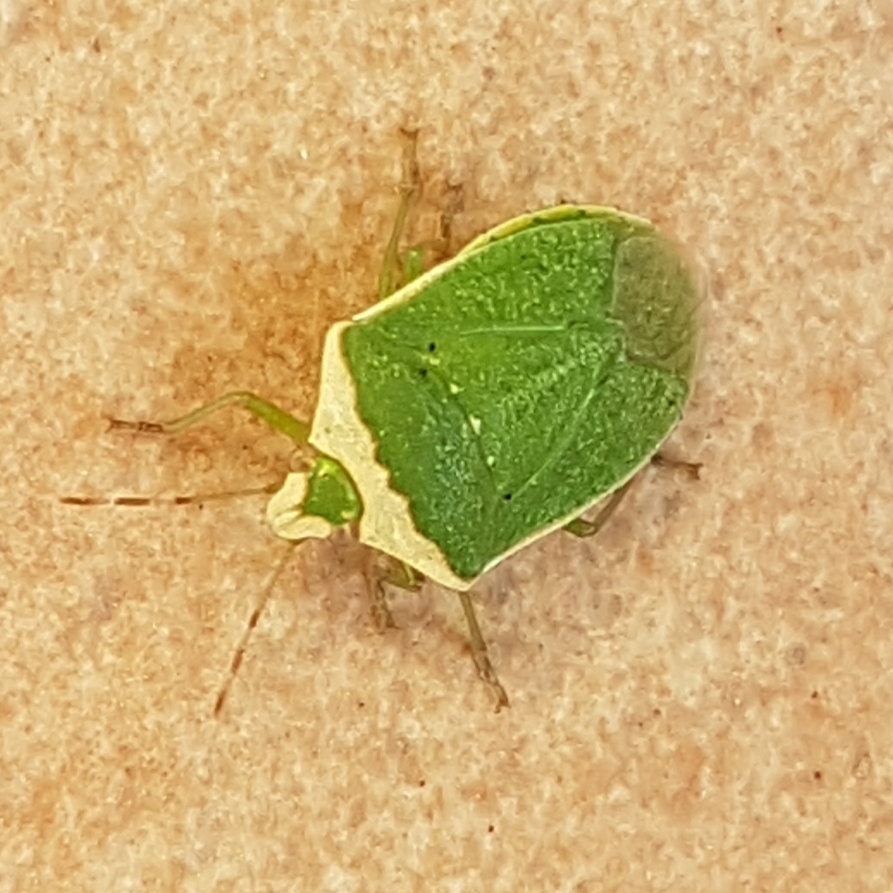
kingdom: Animalia
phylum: Arthropoda
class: Insecta
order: Hemiptera
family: Pentatomidae
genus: Nezara
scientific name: Nezara viridula
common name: Southern green stink bug
